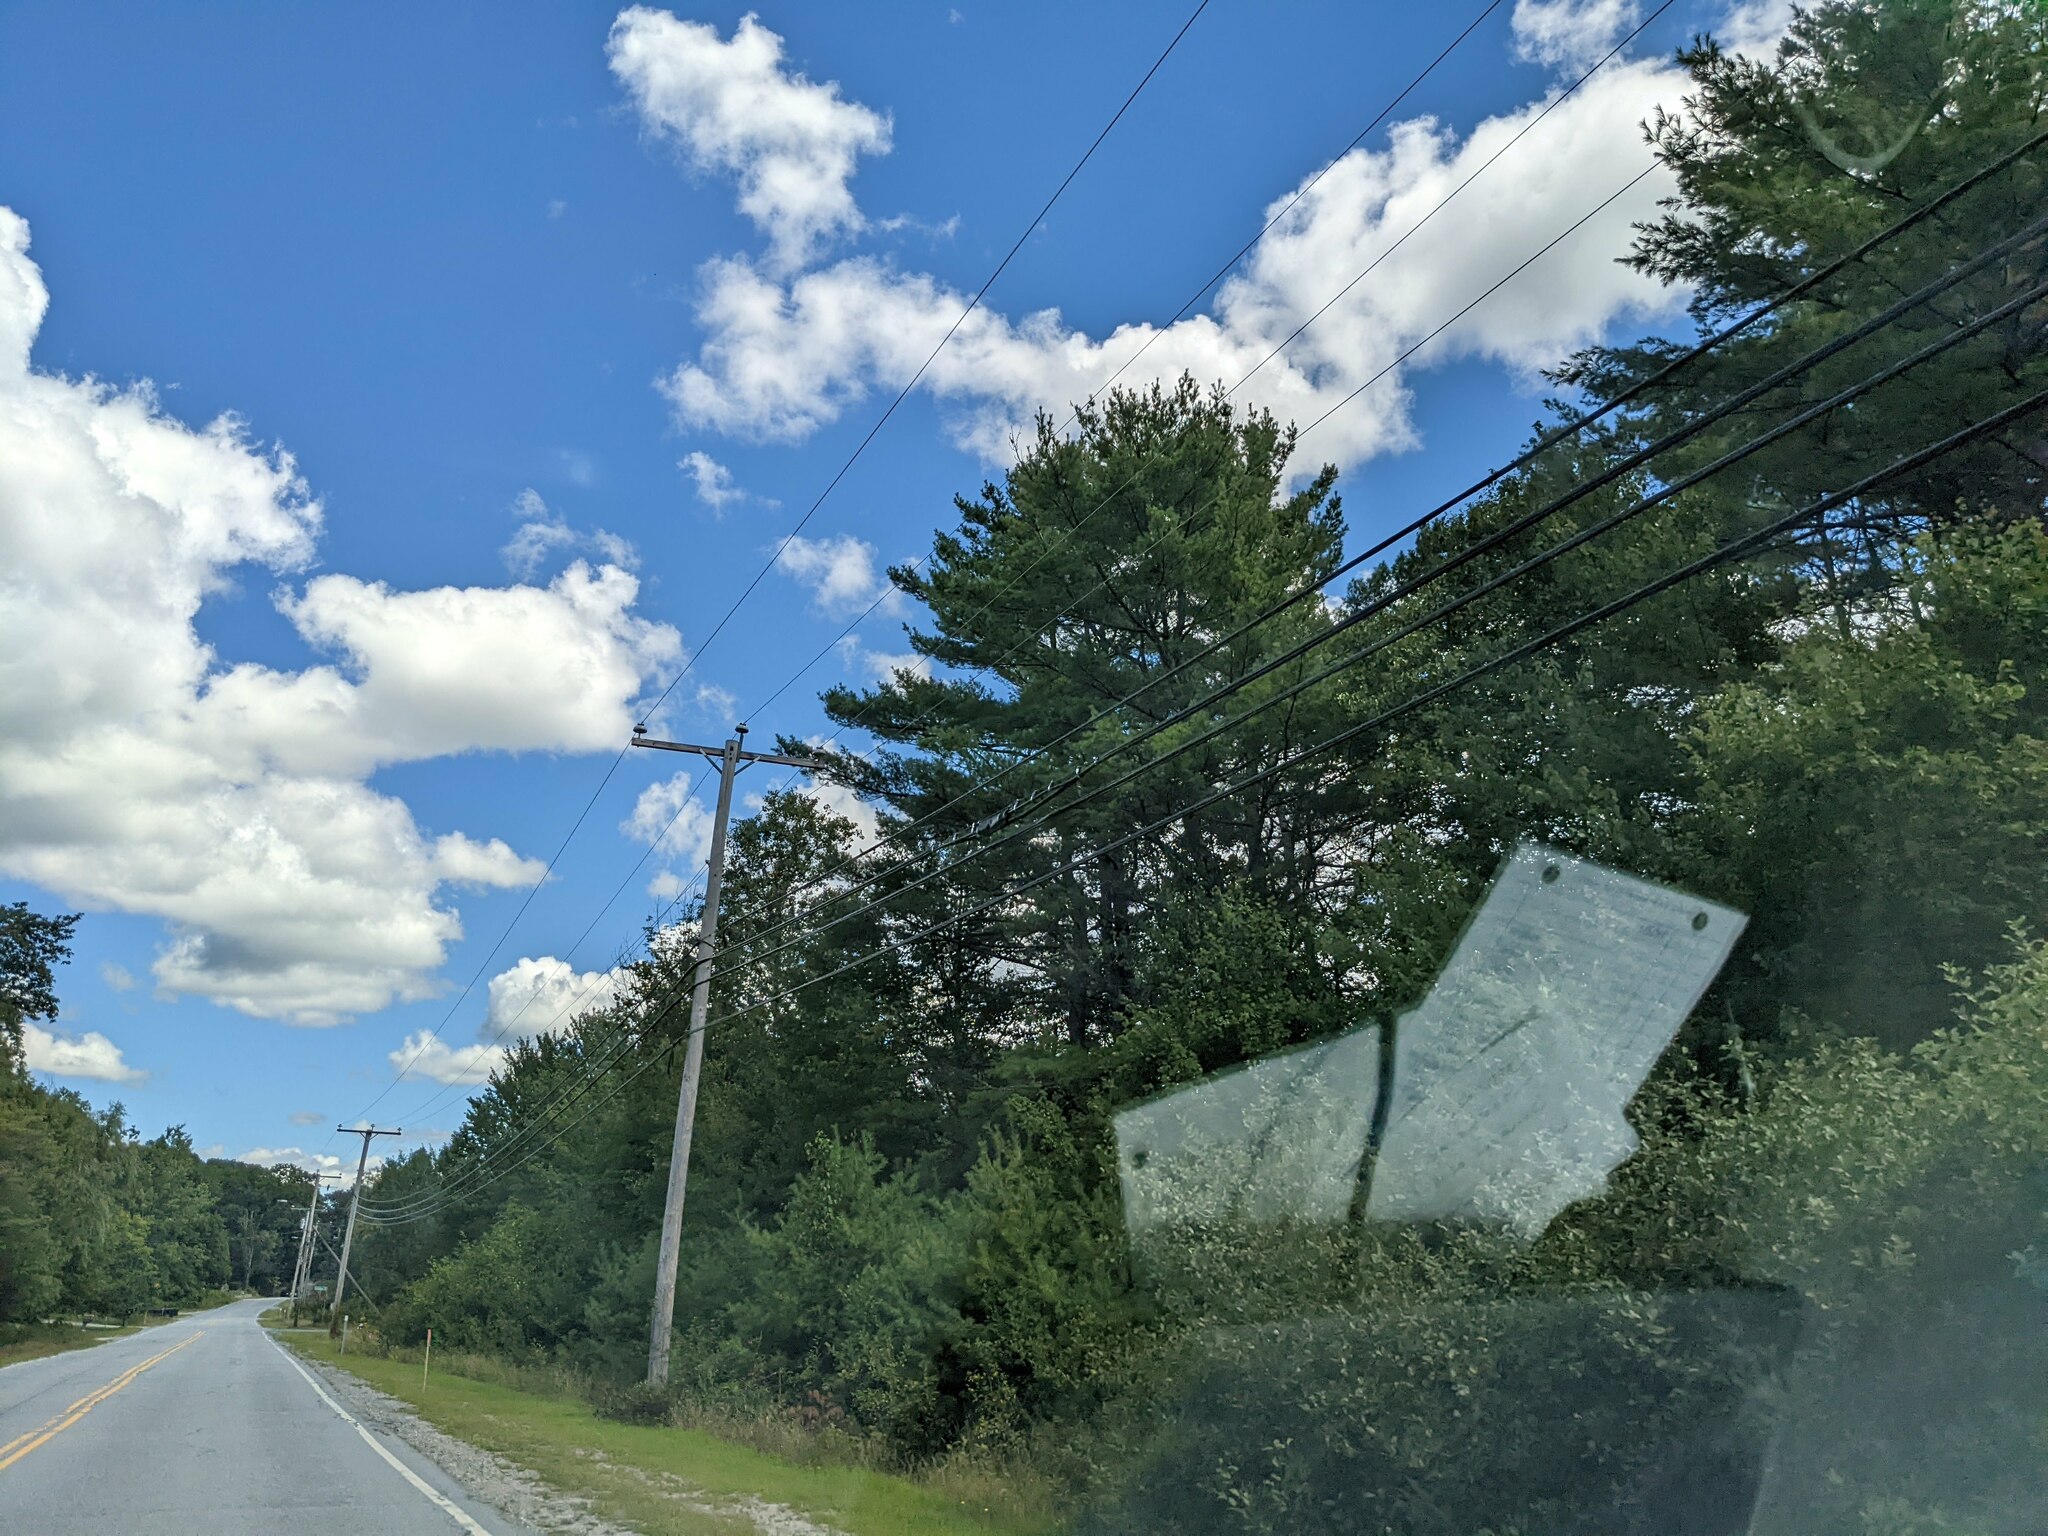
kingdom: Plantae
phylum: Tracheophyta
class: Pinopsida
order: Pinales
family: Pinaceae
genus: Pinus
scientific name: Pinus strobus
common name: Weymouth pine
